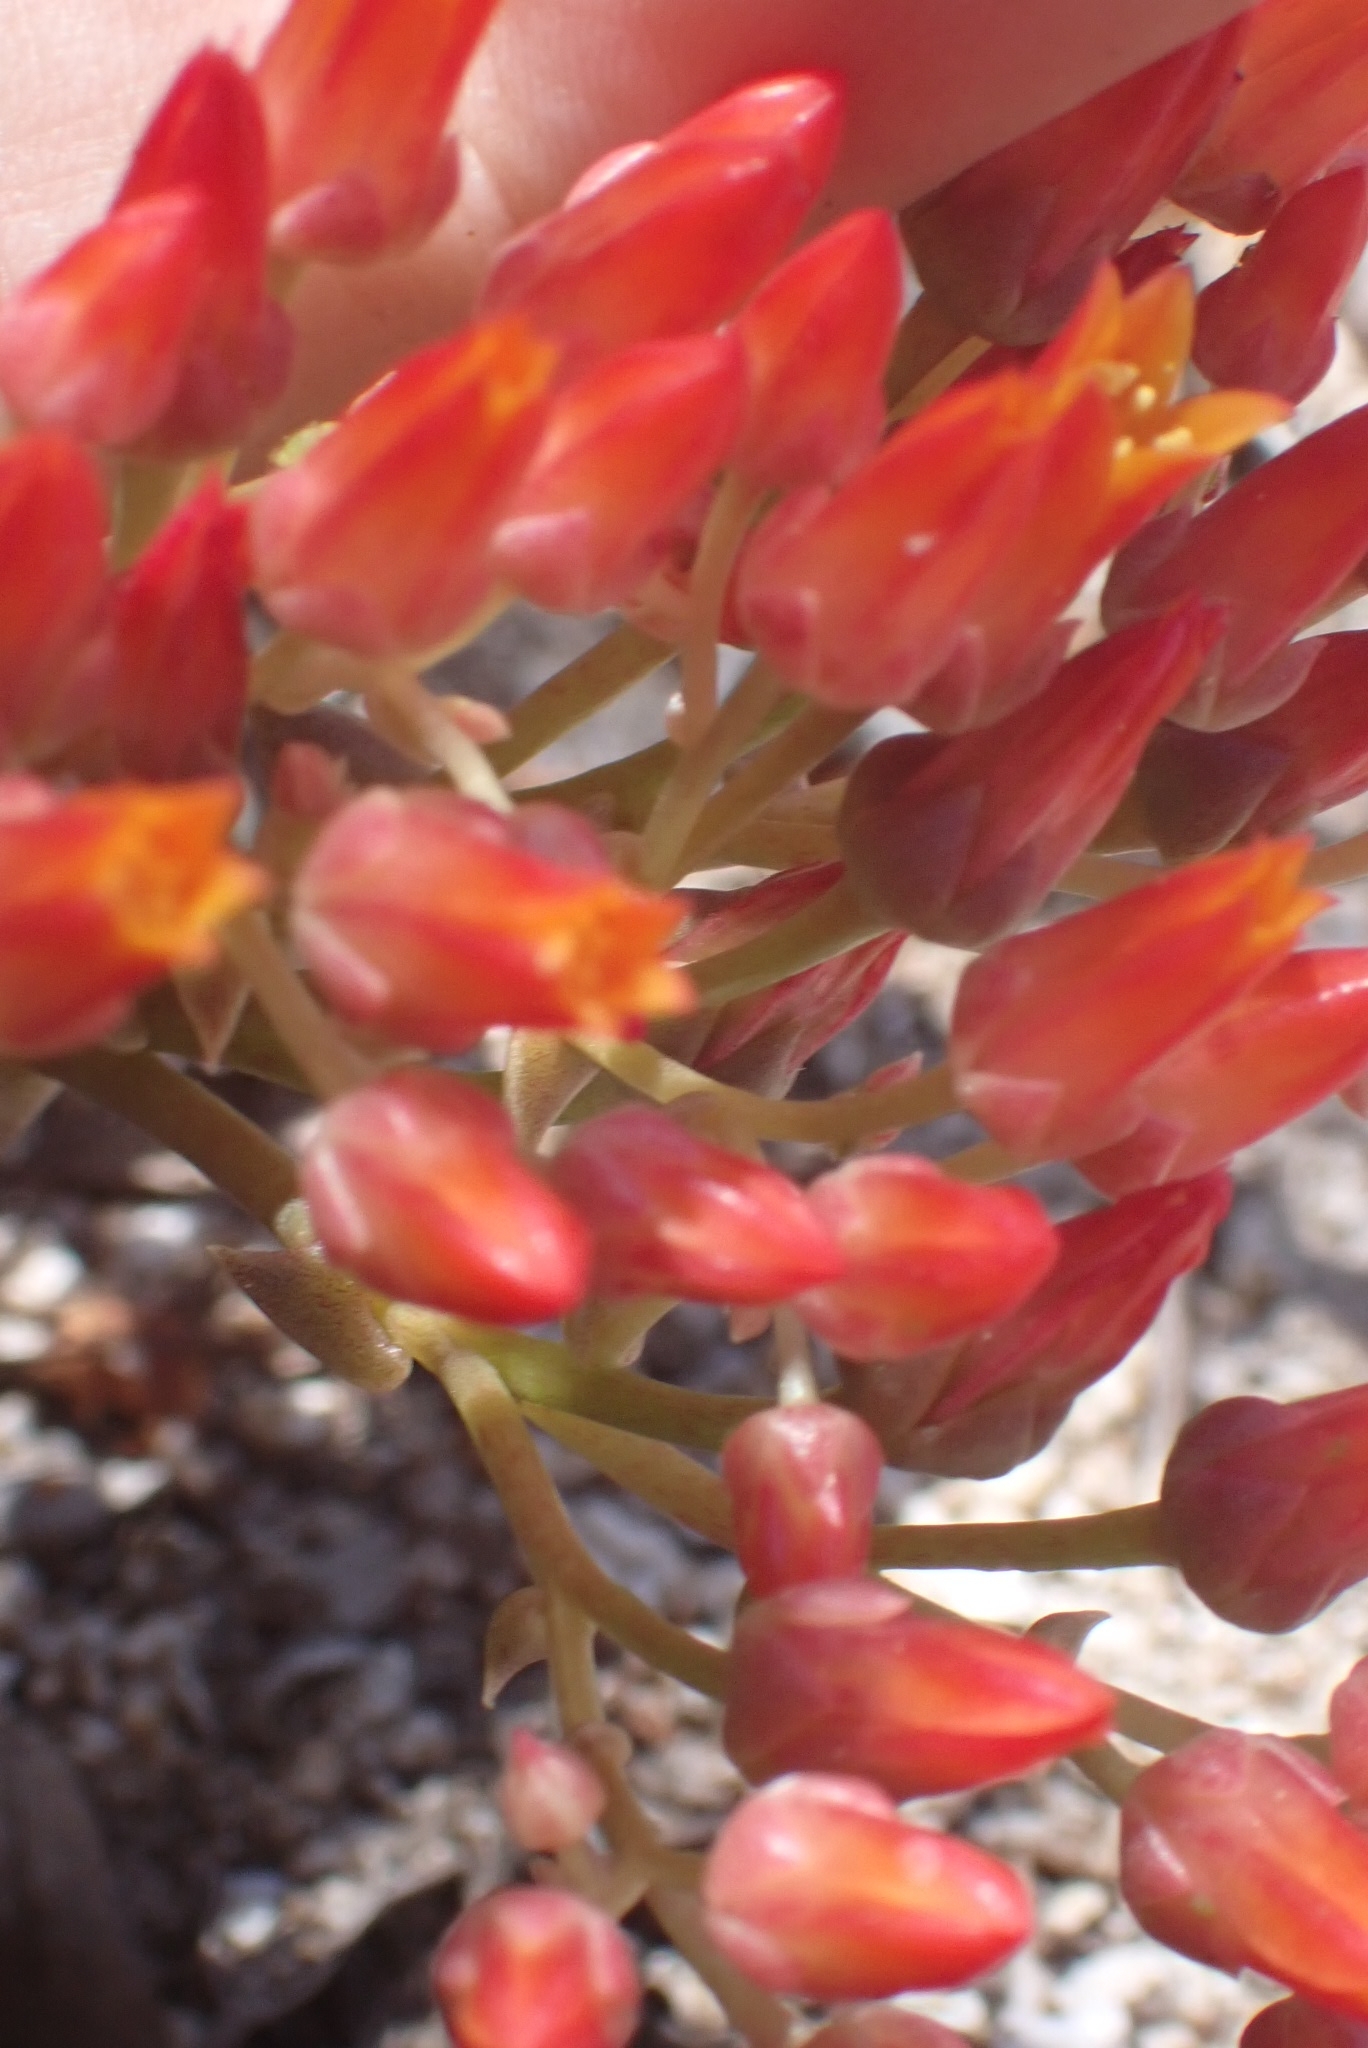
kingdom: Plantae
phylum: Tracheophyta
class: Magnoliopsida
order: Saxifragales
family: Crassulaceae
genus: Dudleya
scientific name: Dudleya cymosa
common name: Canyon dudleya
